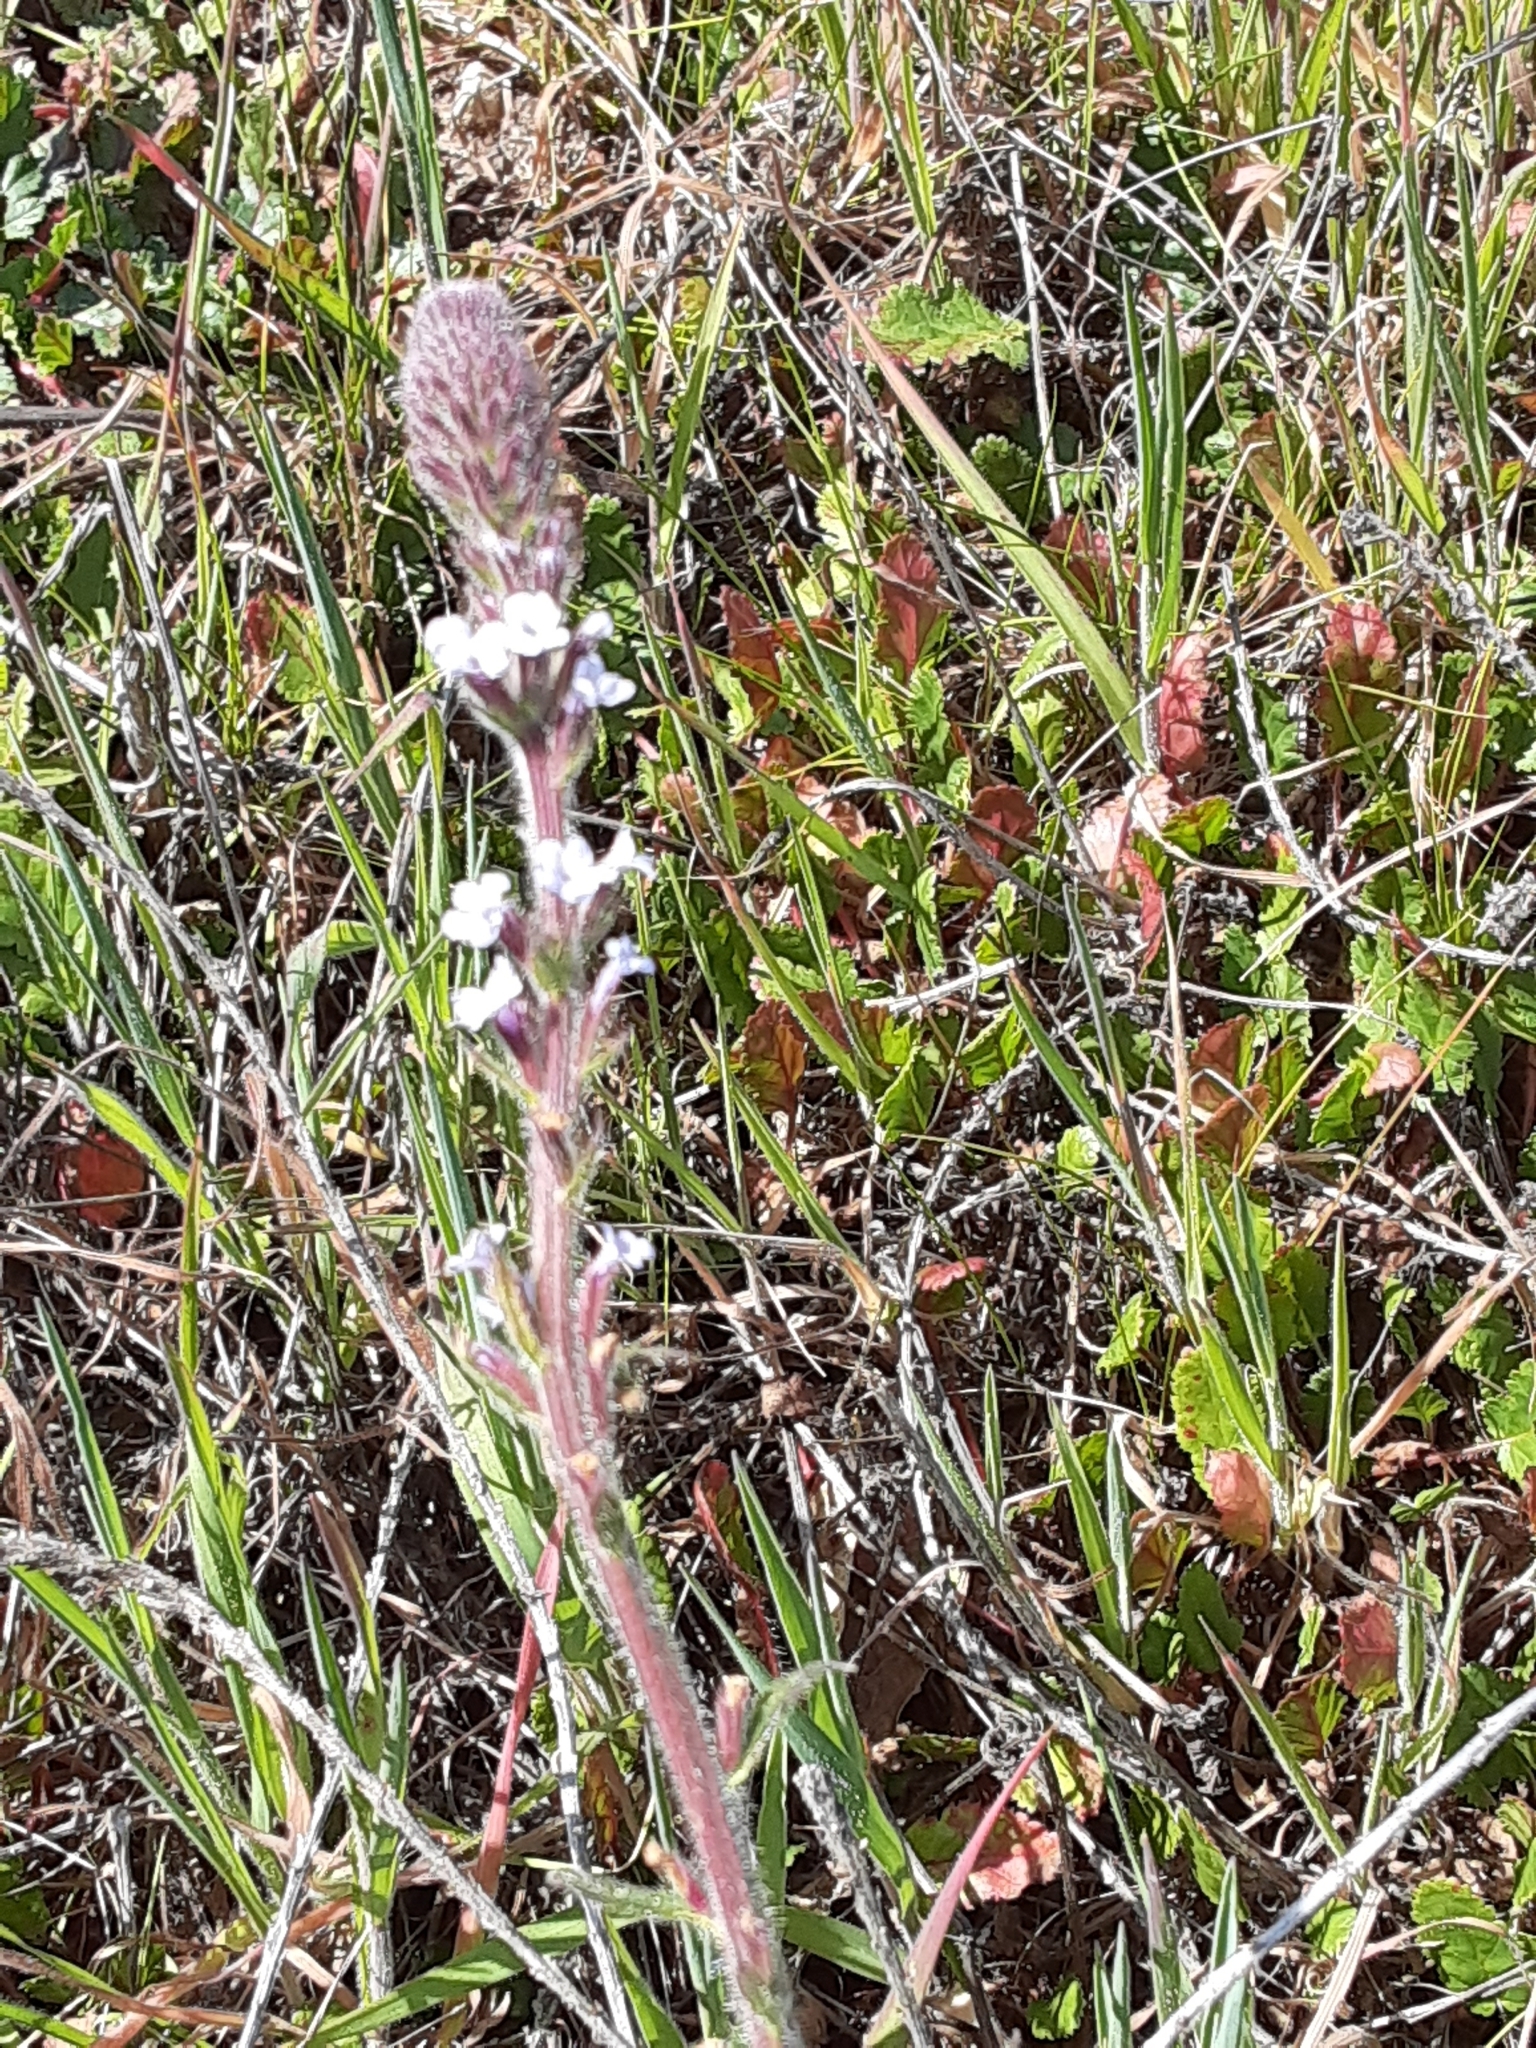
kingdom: Plantae
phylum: Tracheophyta
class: Magnoliopsida
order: Lamiales
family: Verbenaceae
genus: Verbena
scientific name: Verbena lasiostachys
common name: Vervain
